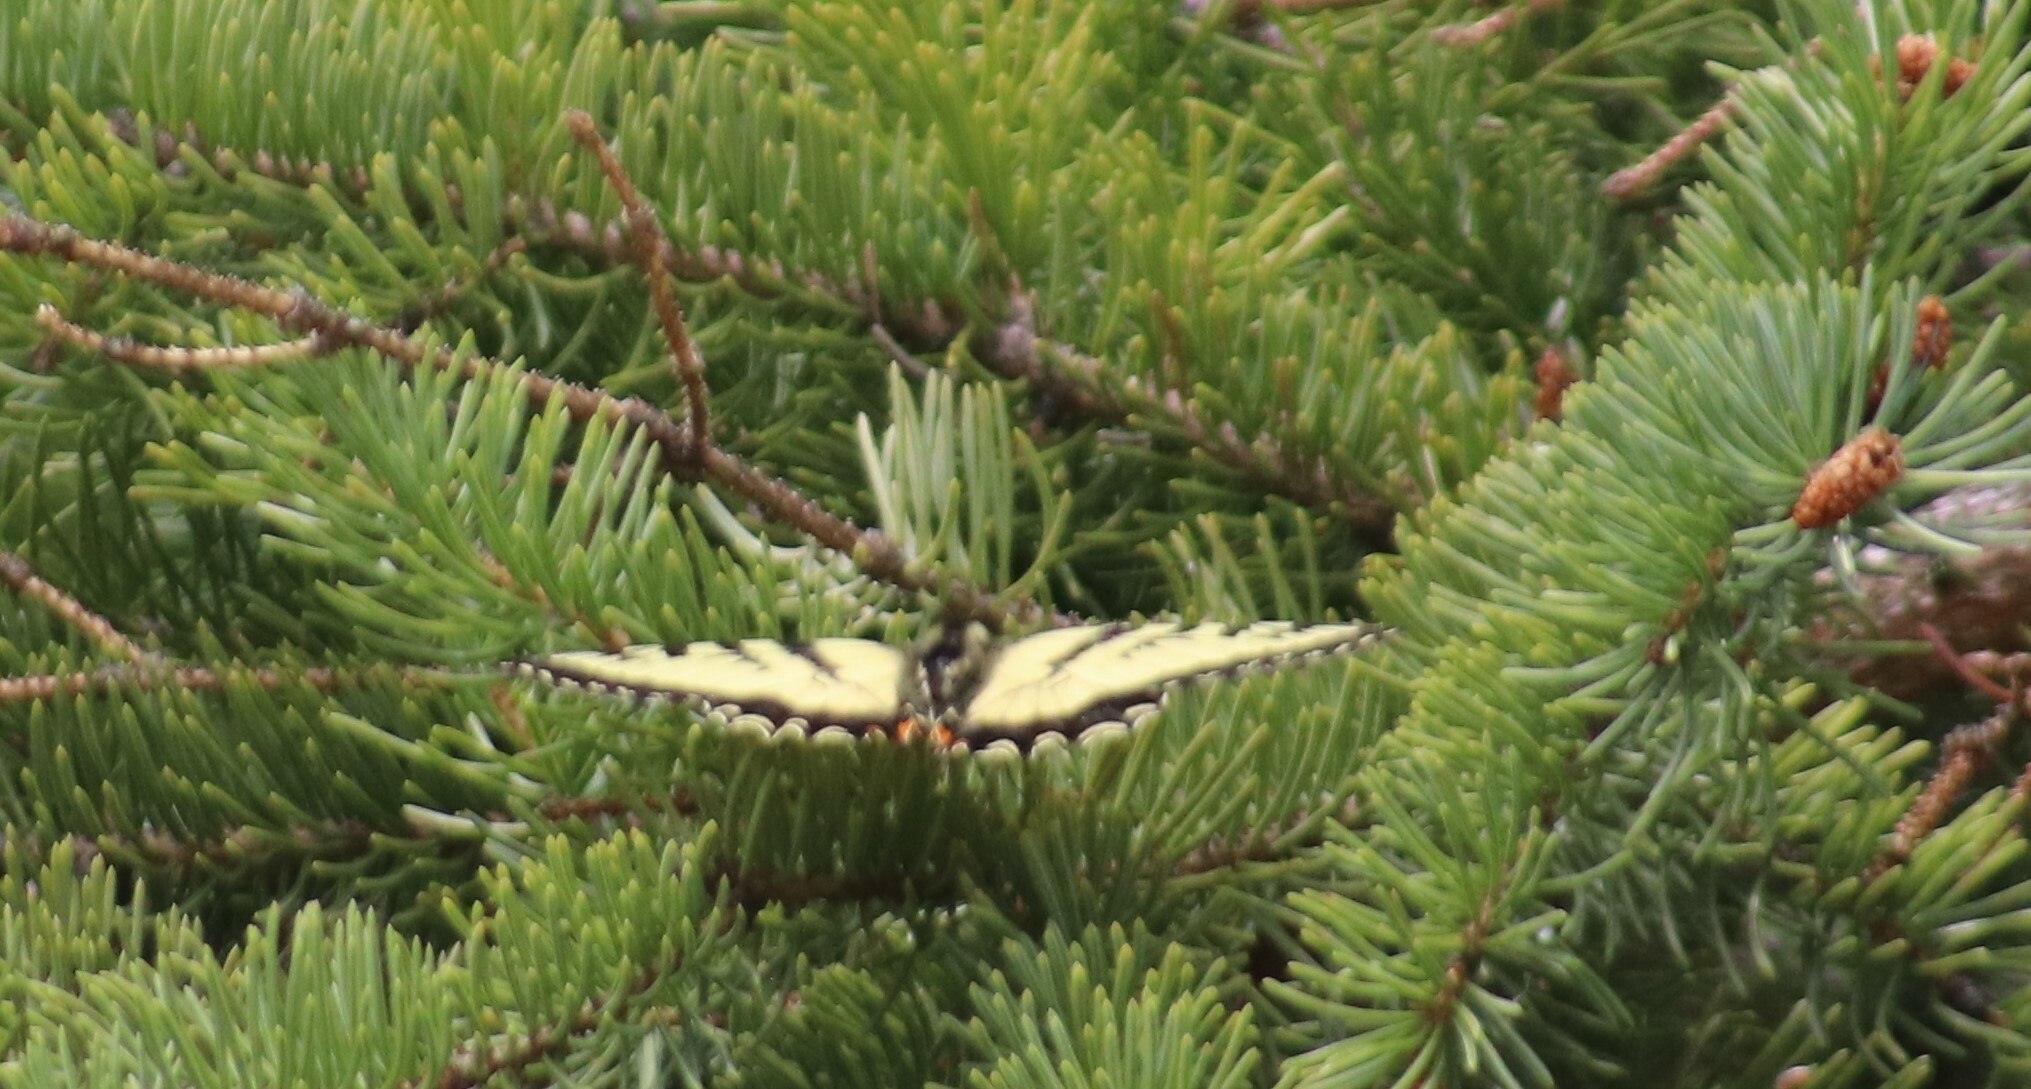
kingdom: Animalia
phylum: Arthropoda
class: Insecta
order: Lepidoptera
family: Papilionidae
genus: Papilio
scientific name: Papilio canadensis
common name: Canadian tiger swallowtail
